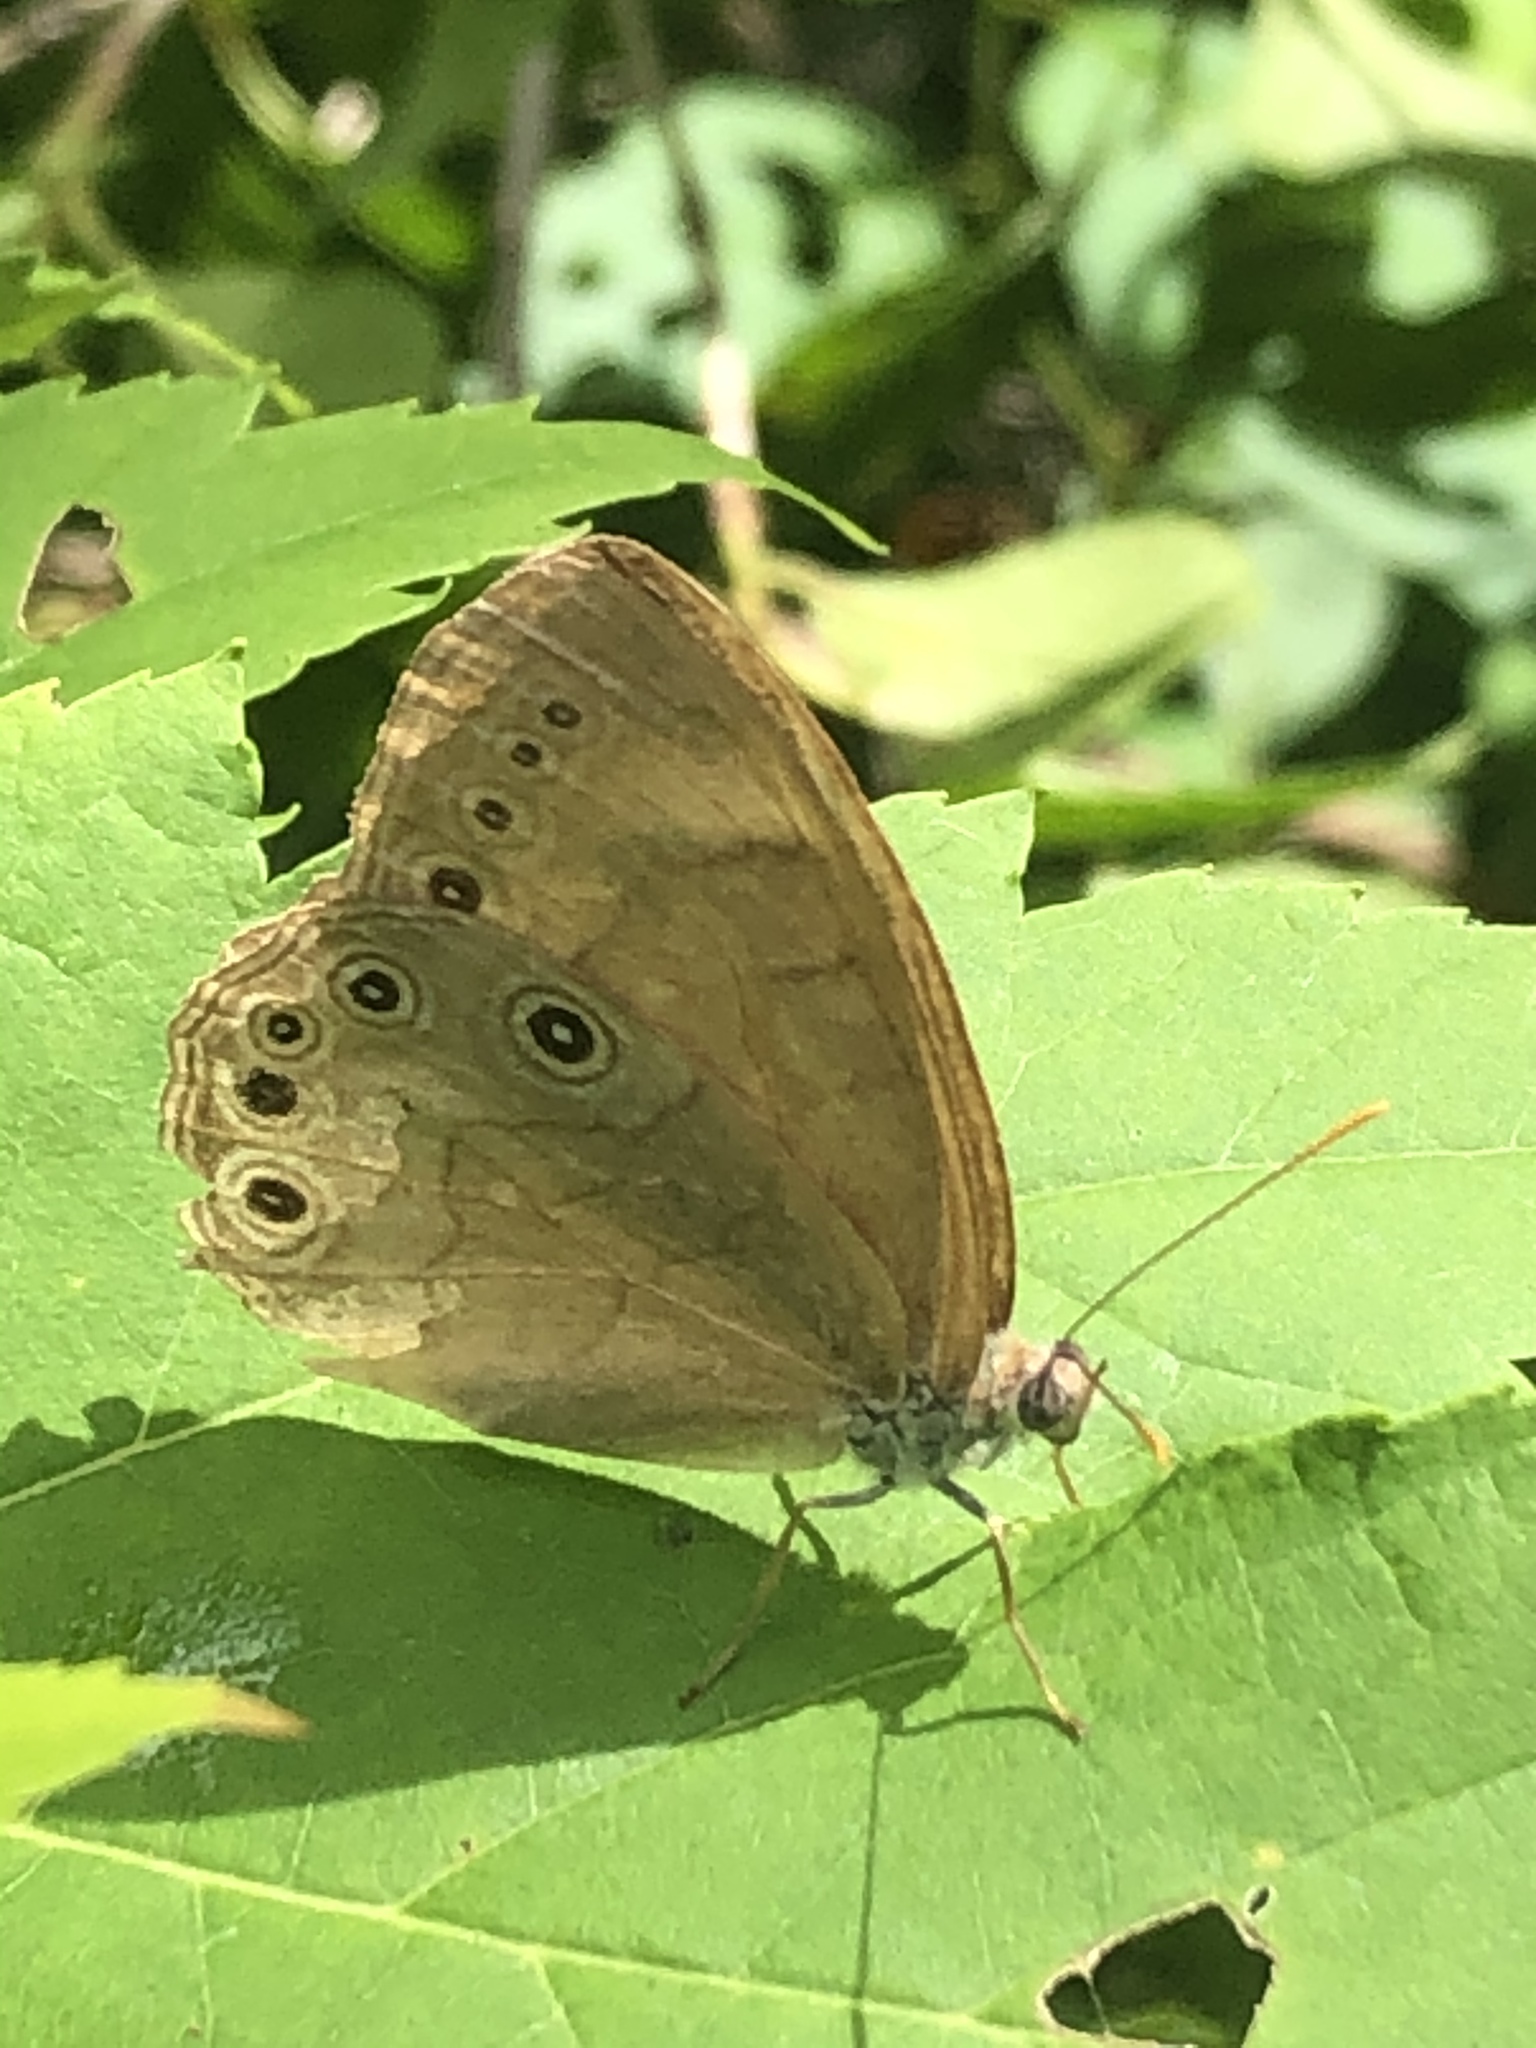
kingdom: Animalia
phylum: Arthropoda
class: Insecta
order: Lepidoptera
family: Nymphalidae
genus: Lethe
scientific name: Lethe eurydice
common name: Eyed brown
